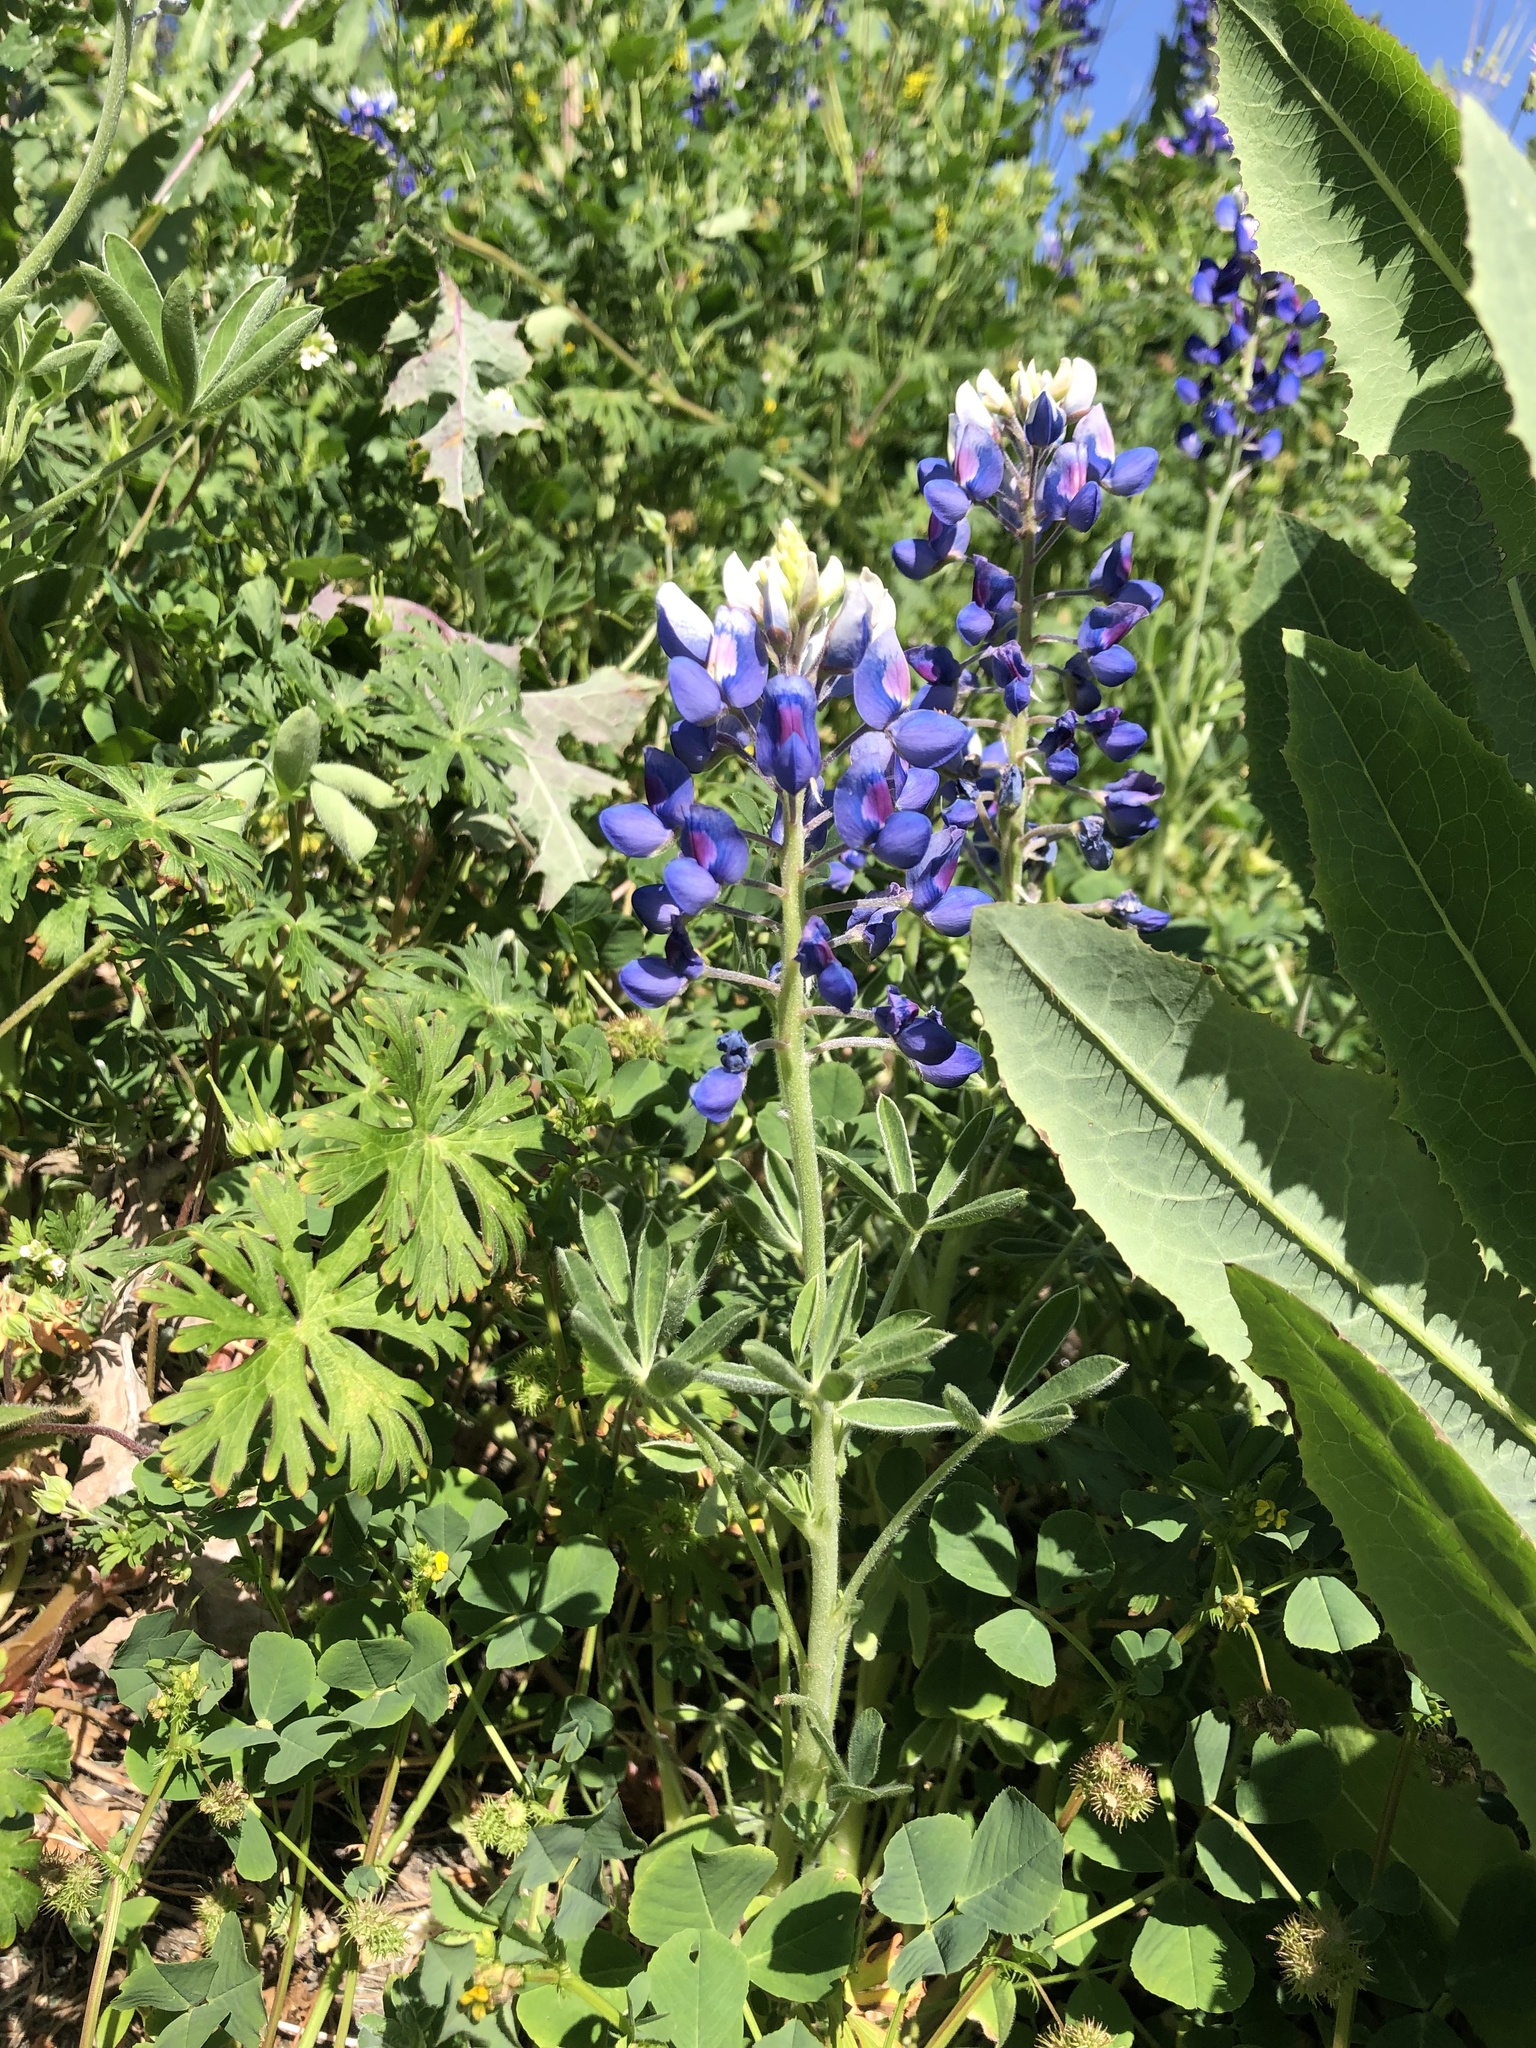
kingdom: Plantae
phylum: Tracheophyta
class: Magnoliopsida
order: Fabales
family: Fabaceae
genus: Lupinus
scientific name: Lupinus texensis
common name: Texas bluebonnet
